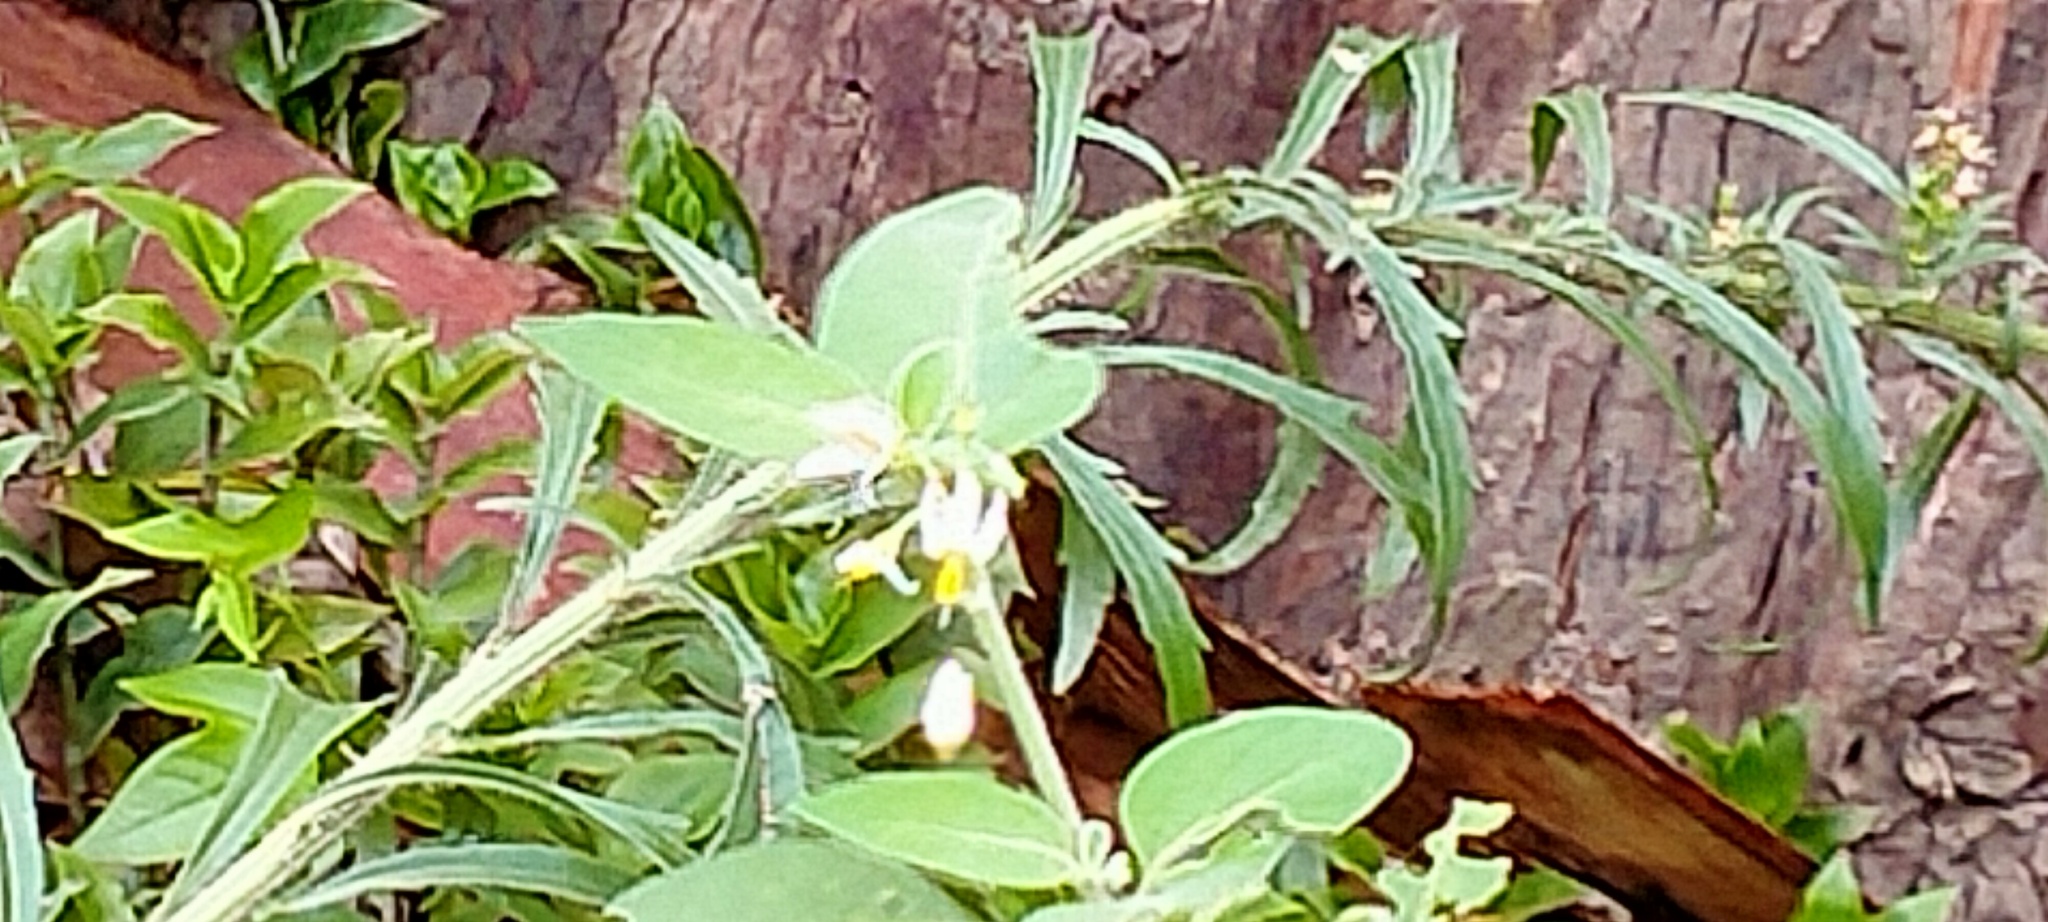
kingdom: Plantae
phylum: Tracheophyta
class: Magnoliopsida
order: Solanales
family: Solanaceae
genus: Solanum
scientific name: Solanum chenopodioides
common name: Tall nightshade
